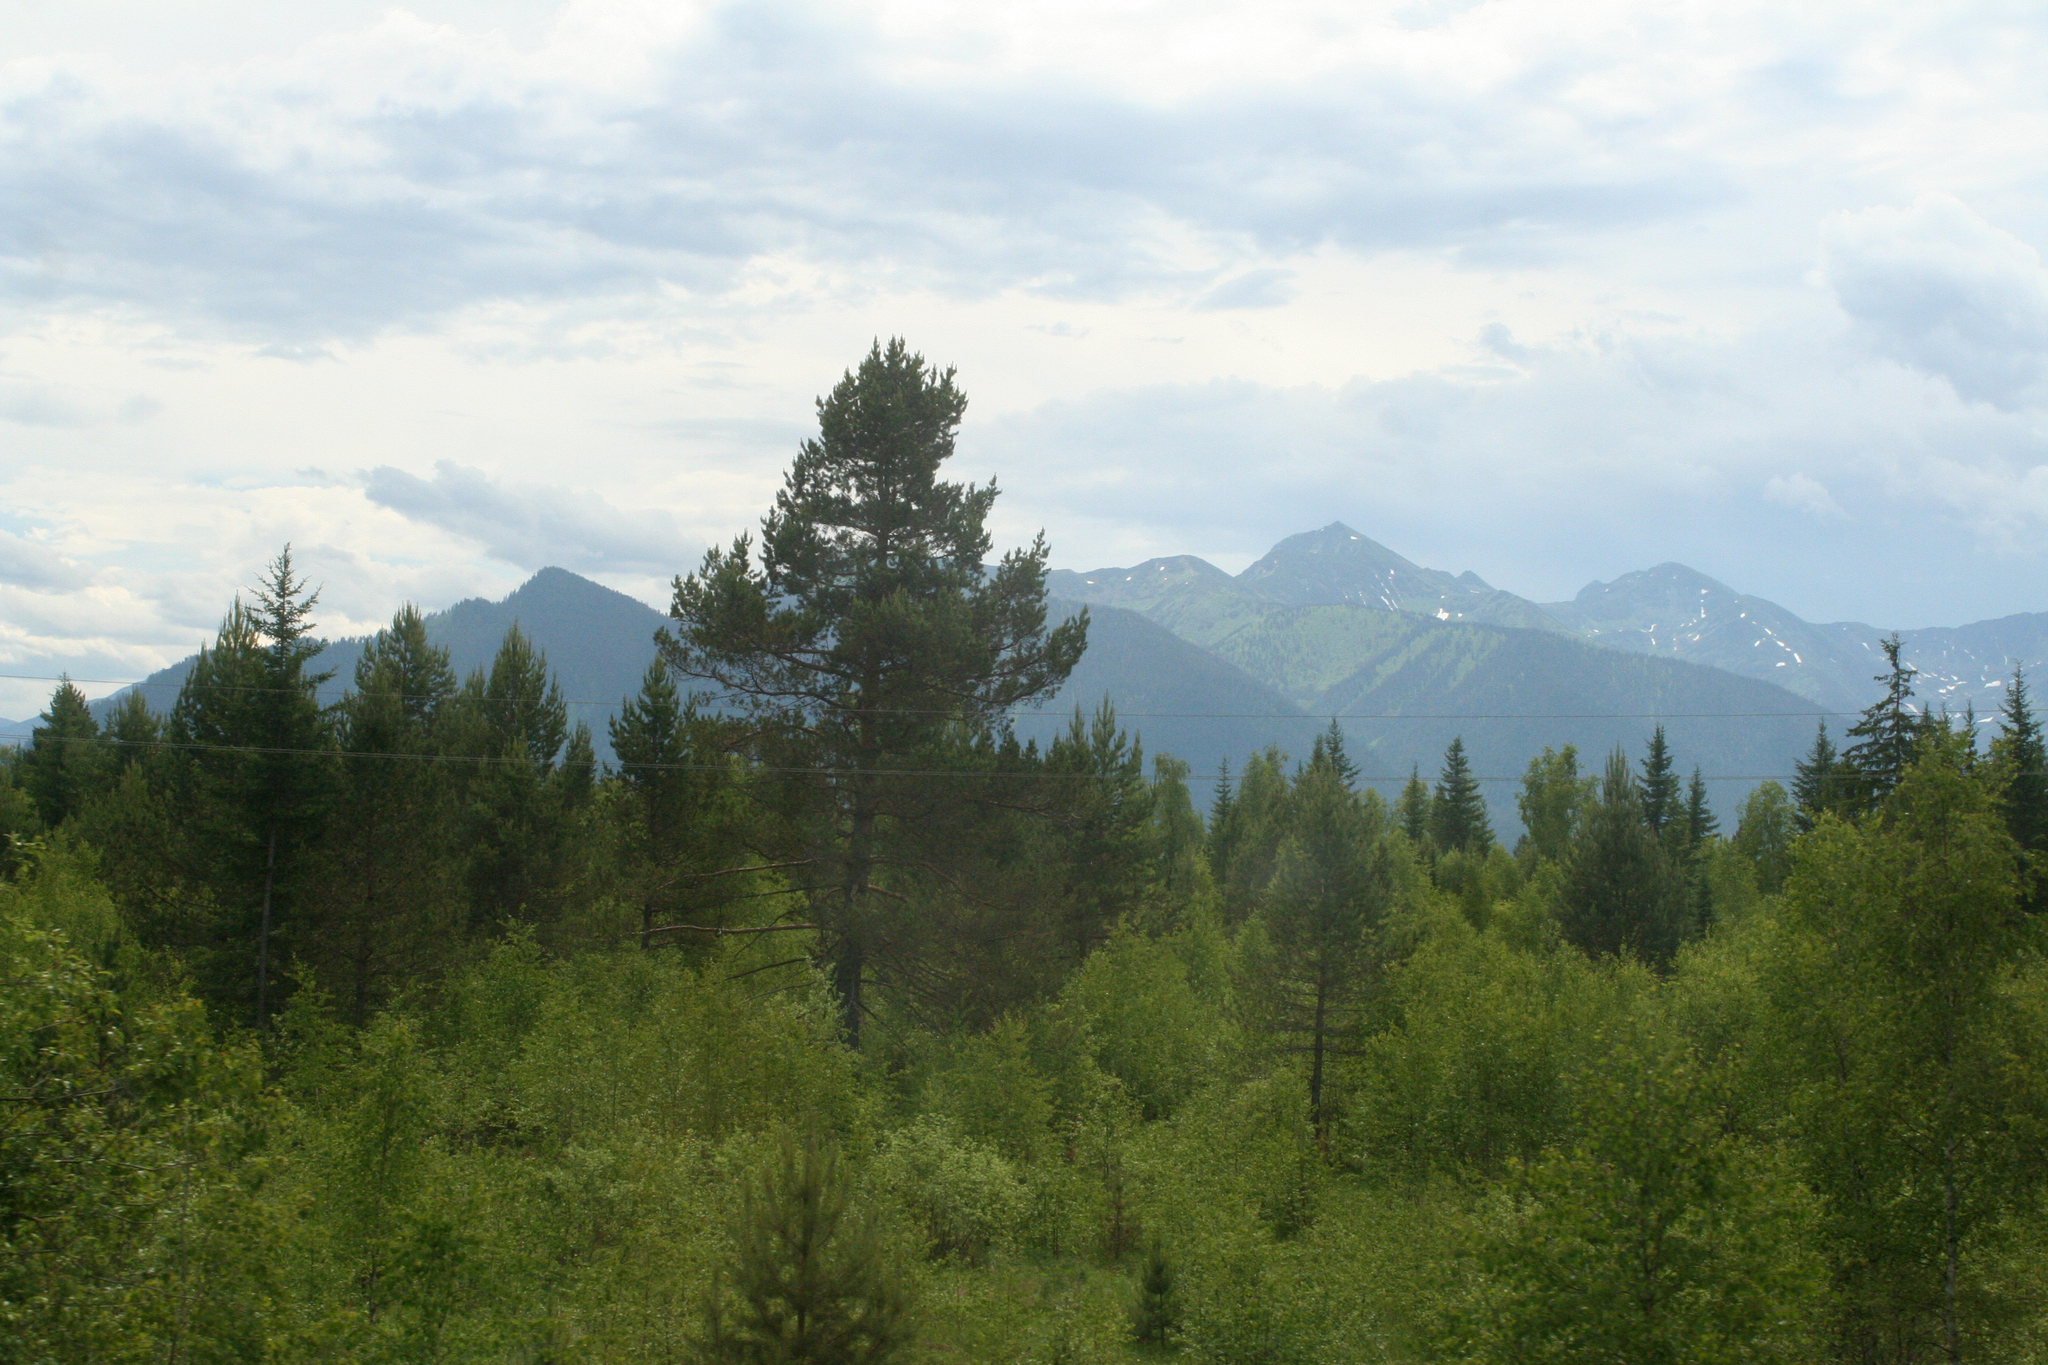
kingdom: Plantae
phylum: Tracheophyta
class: Pinopsida
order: Pinales
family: Pinaceae
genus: Pinus
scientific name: Pinus sylvestris
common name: Scots pine
